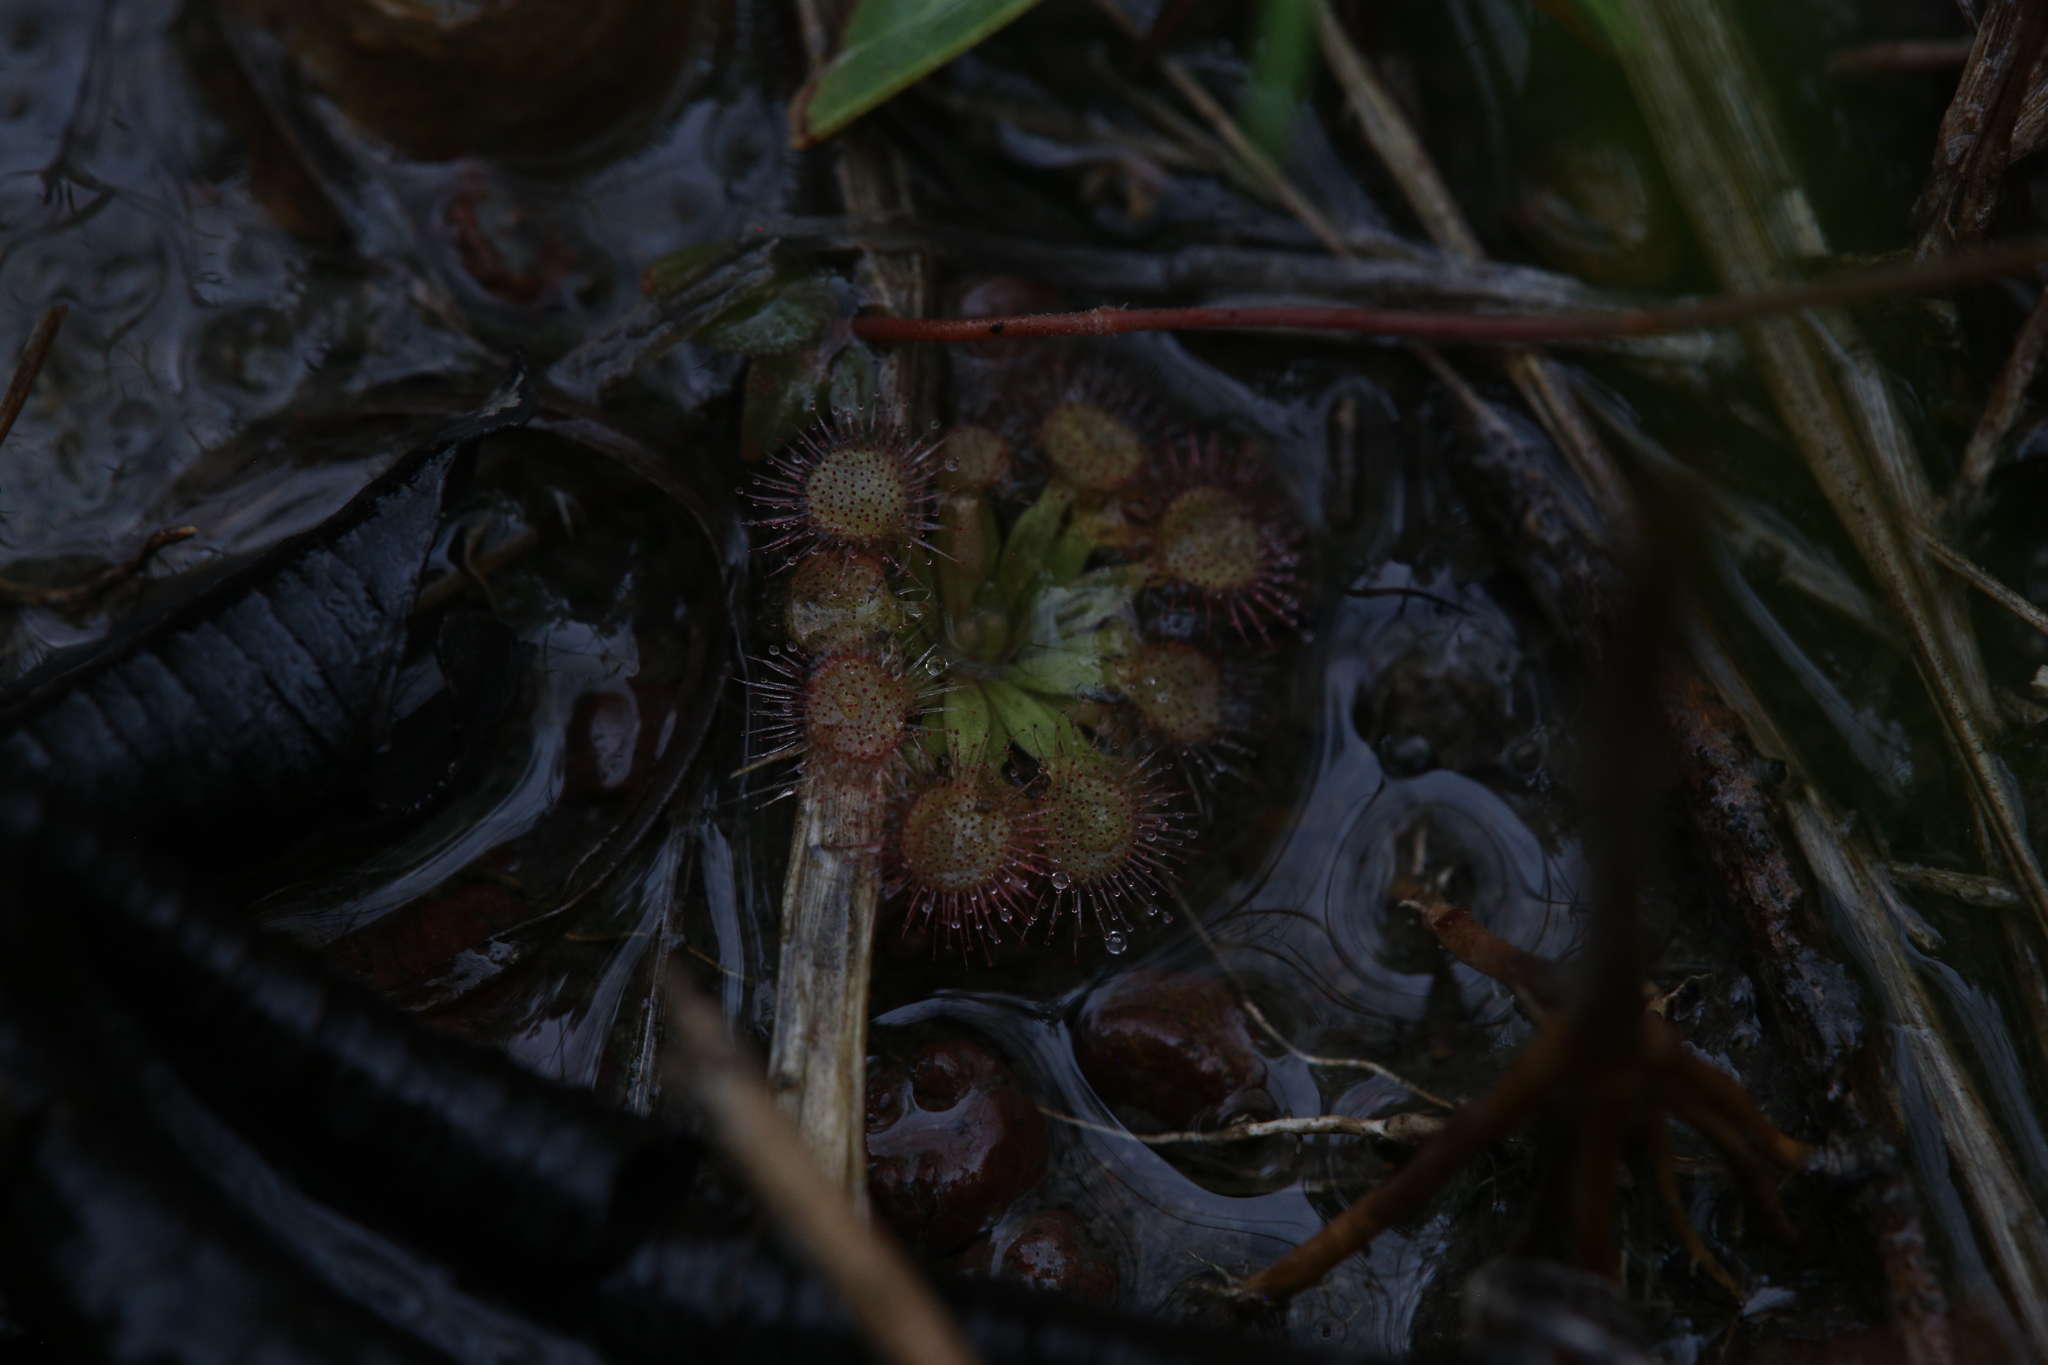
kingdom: Plantae
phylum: Tracheophyta
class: Magnoliopsida
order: Caryophyllales
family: Droseraceae
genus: Drosera
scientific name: Drosera darwinensis
